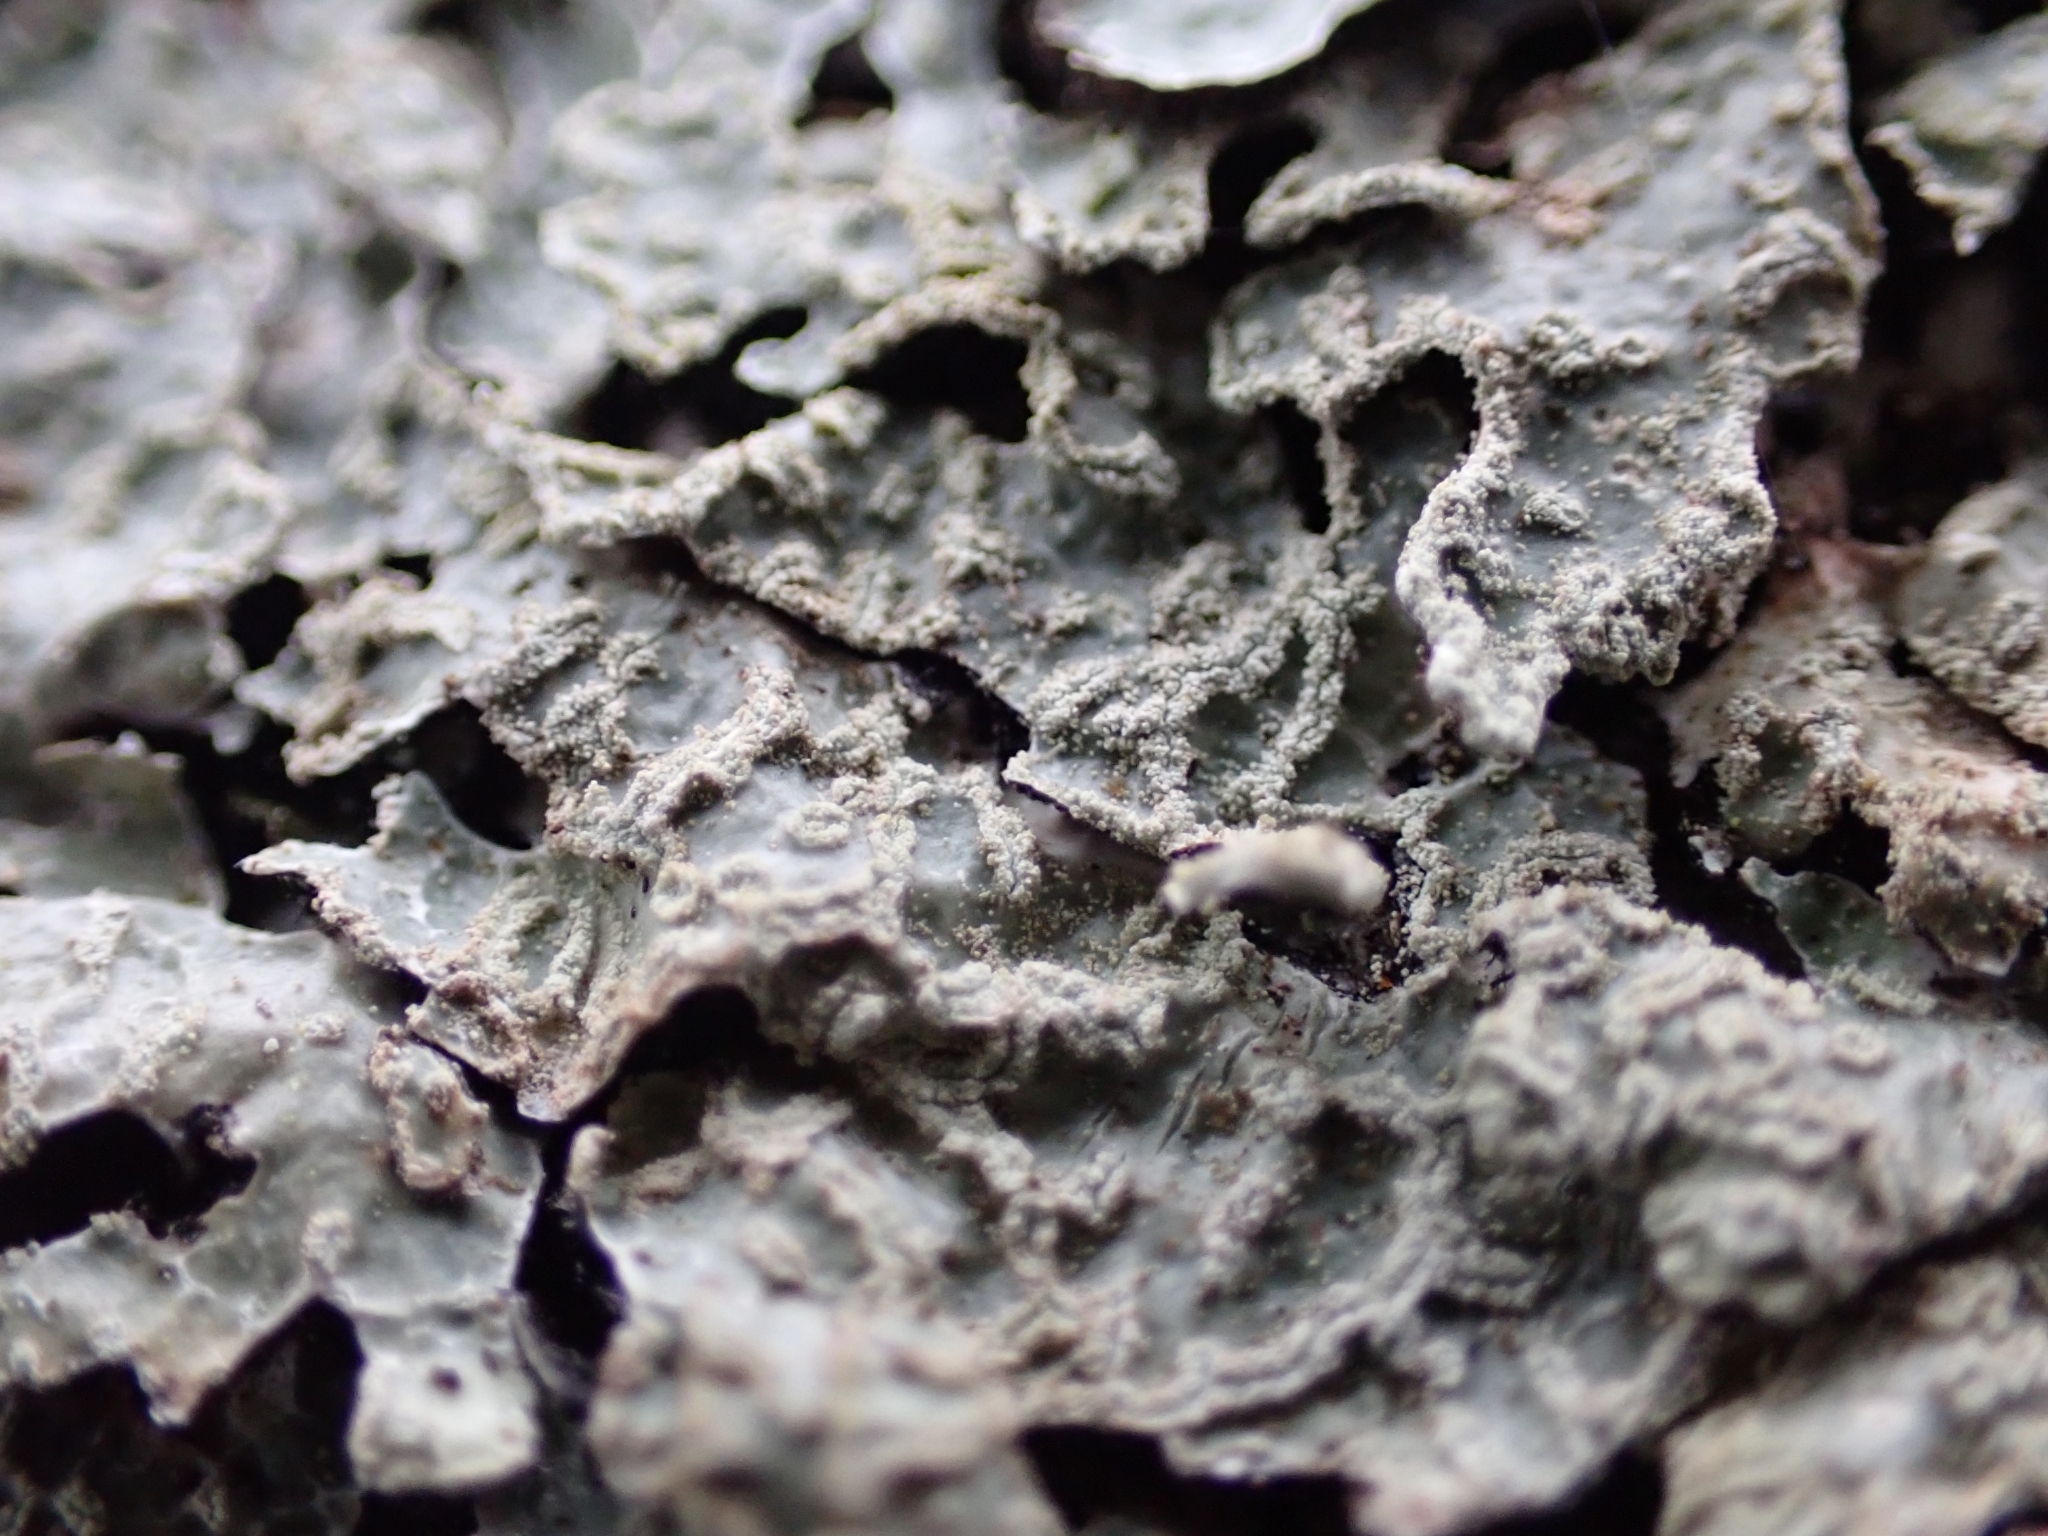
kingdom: Fungi
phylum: Ascomycota
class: Lecanoromycetes
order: Lecanorales
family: Parmeliaceae
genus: Parmelia
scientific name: Parmelia sulcata
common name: Netted shield lichen
